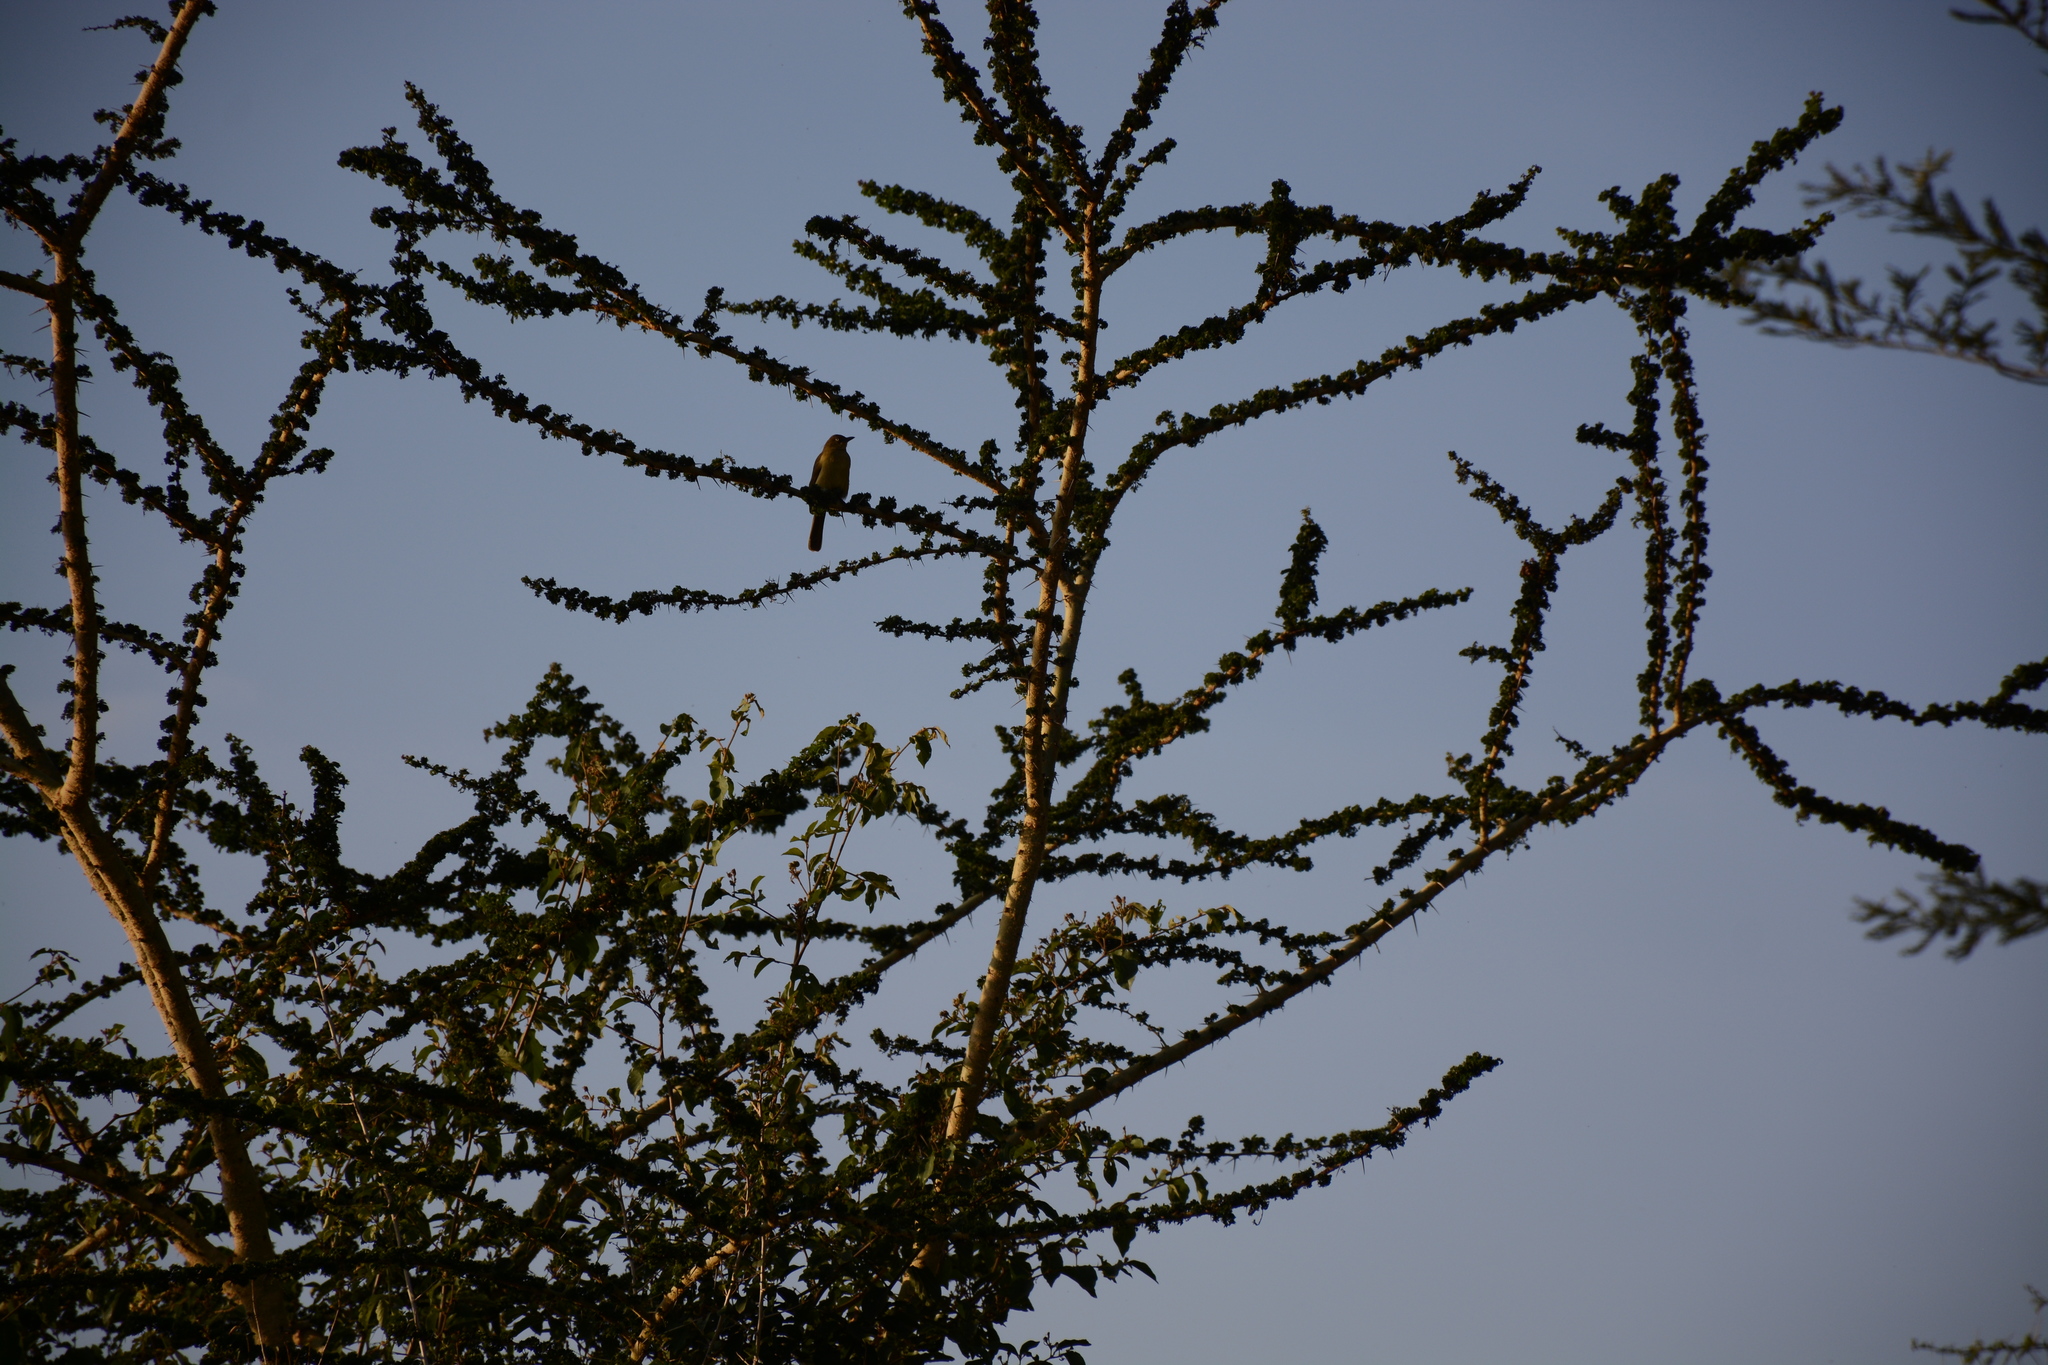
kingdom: Animalia
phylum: Chordata
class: Aves
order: Passeriformes
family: Pycnonotidae
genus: Andropadus
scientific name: Andropadus importunus
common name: Sombre greenbul
